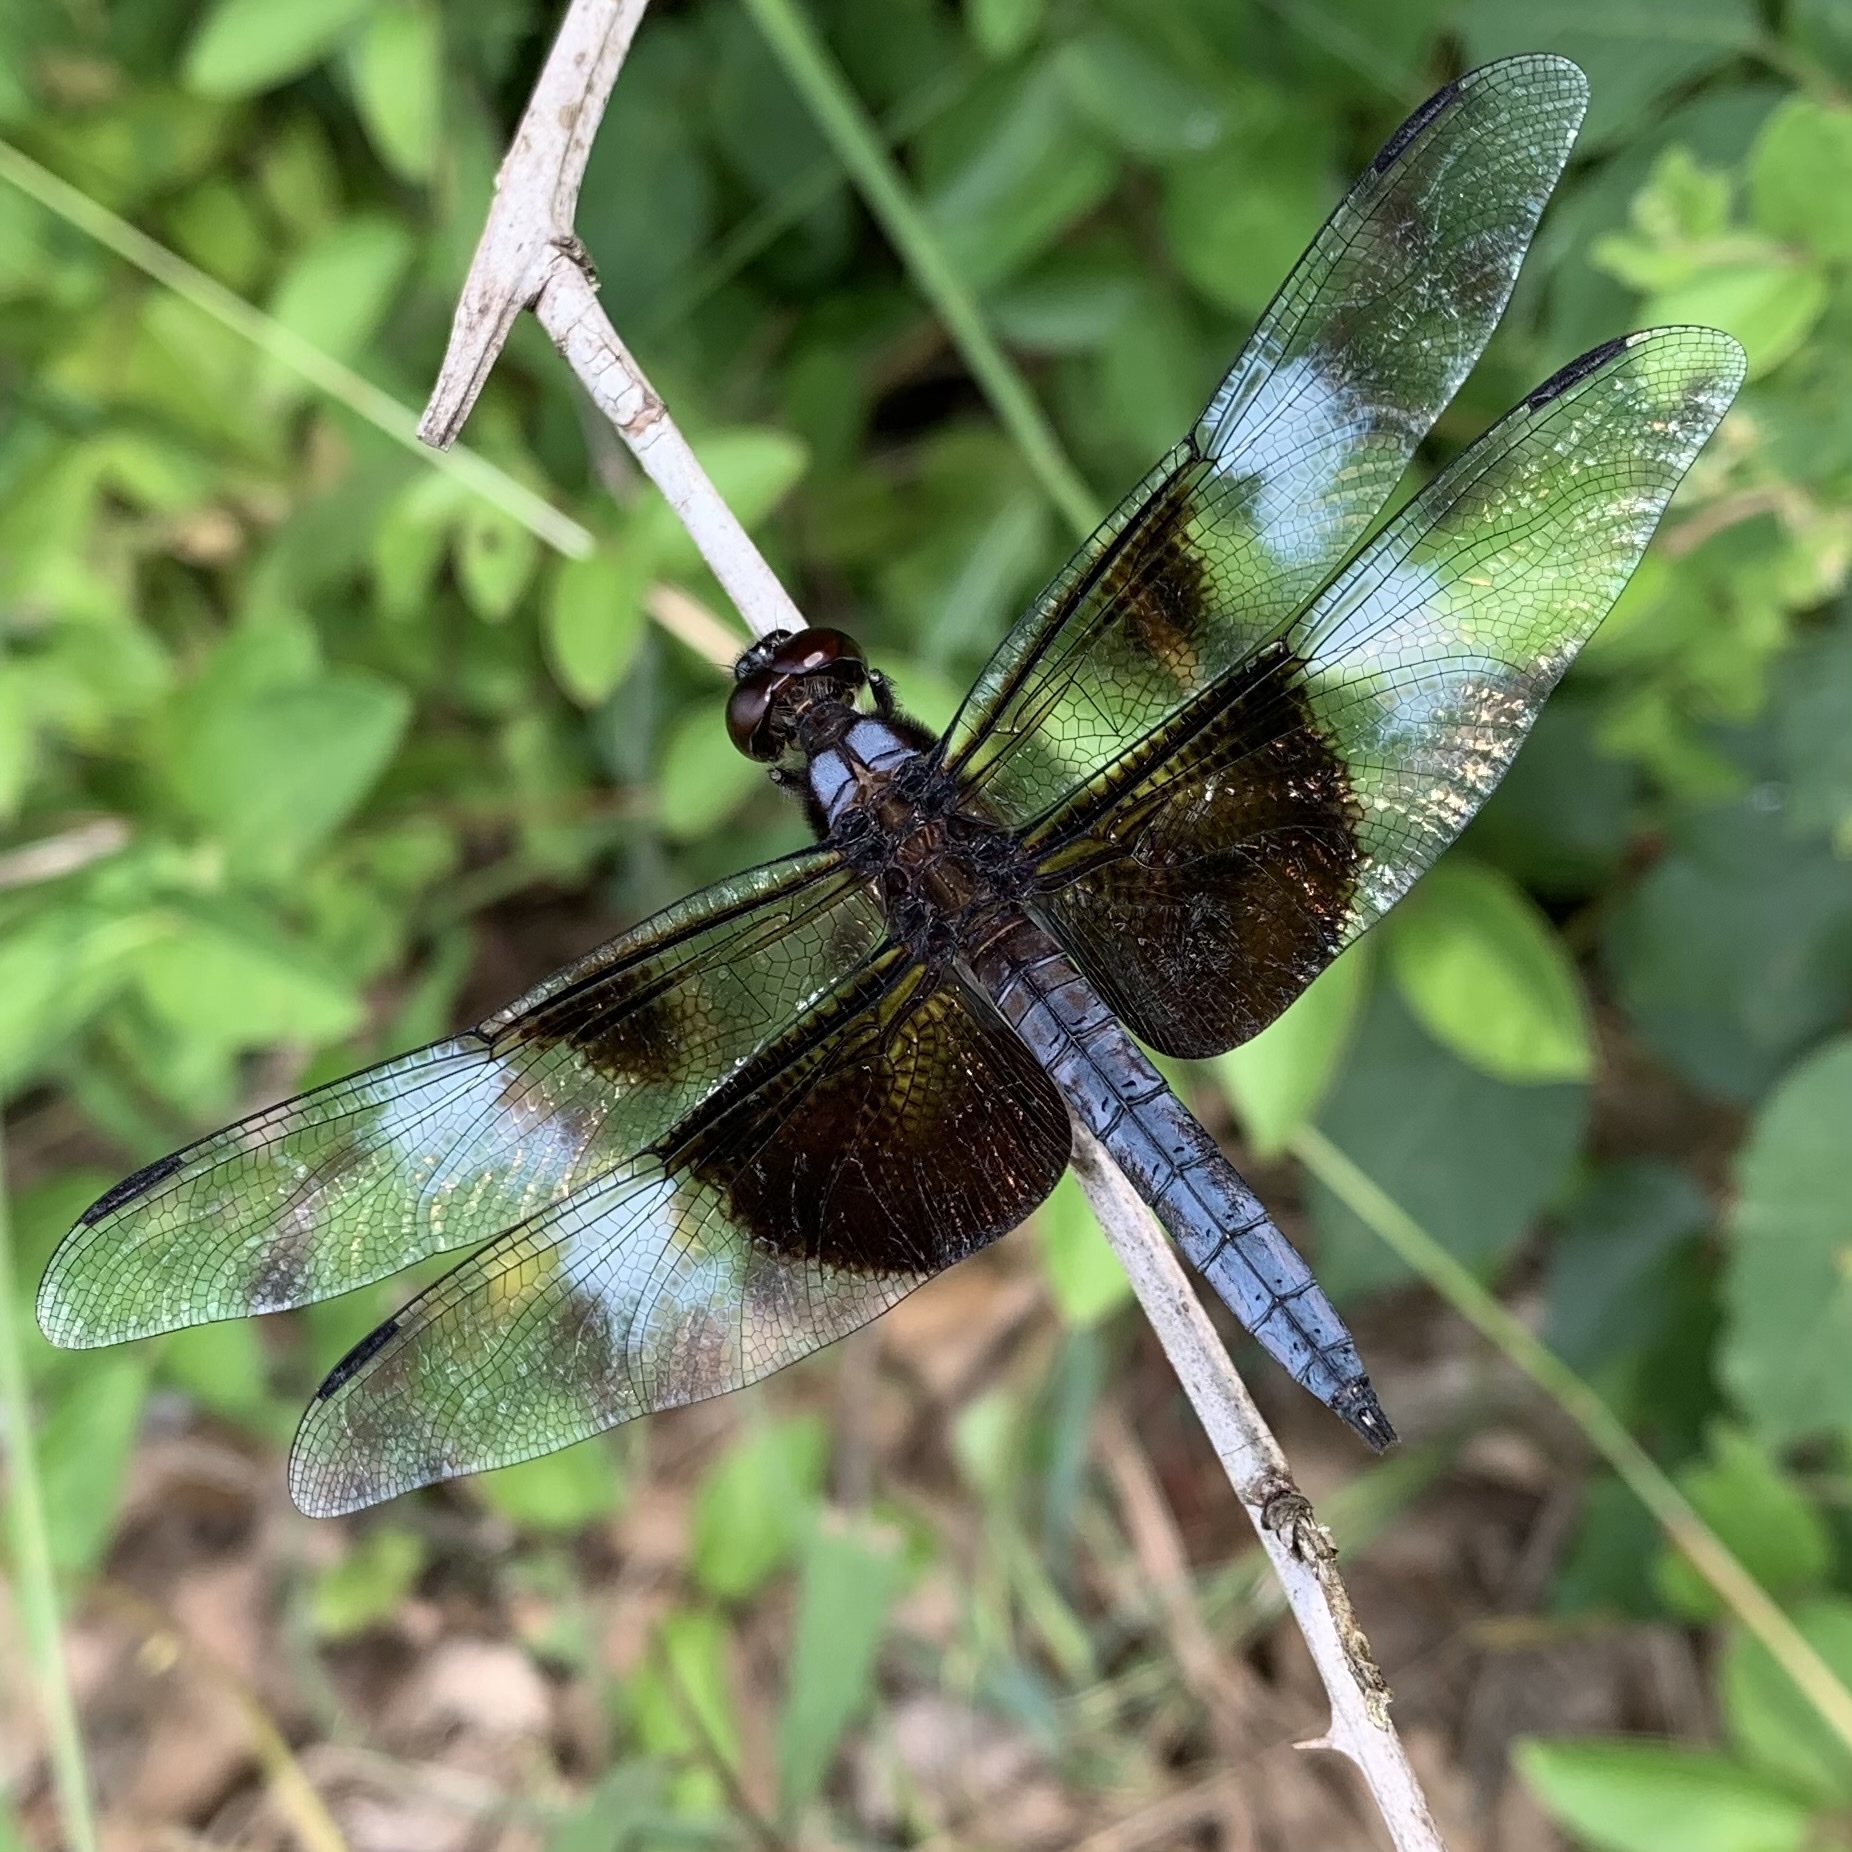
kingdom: Animalia
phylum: Arthropoda
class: Insecta
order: Odonata
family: Libellulidae
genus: Libellula
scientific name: Libellula luctuosa
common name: Widow skimmer
